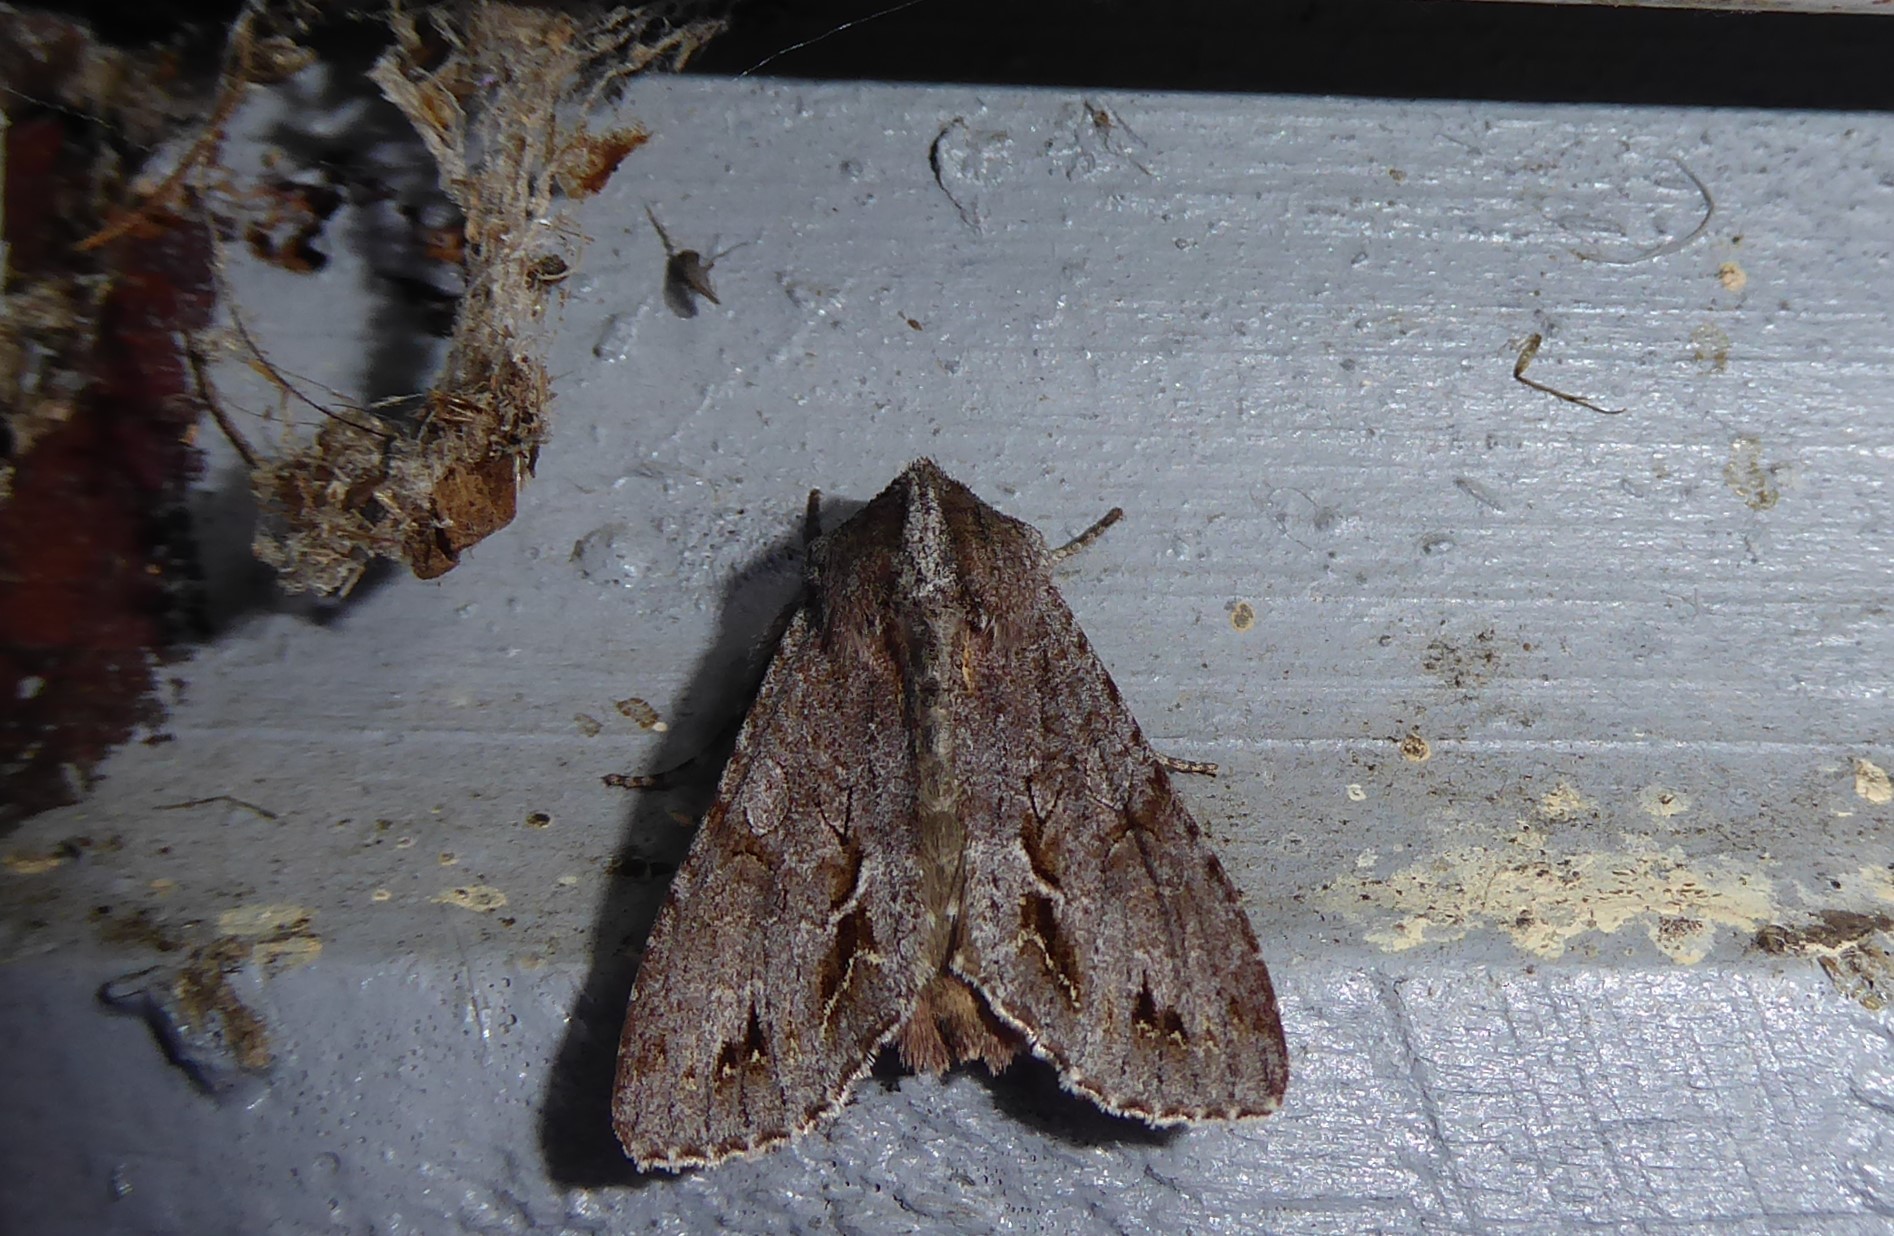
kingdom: Animalia
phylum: Arthropoda
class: Insecta
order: Lepidoptera
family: Noctuidae
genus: Ichneutica
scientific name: Ichneutica
